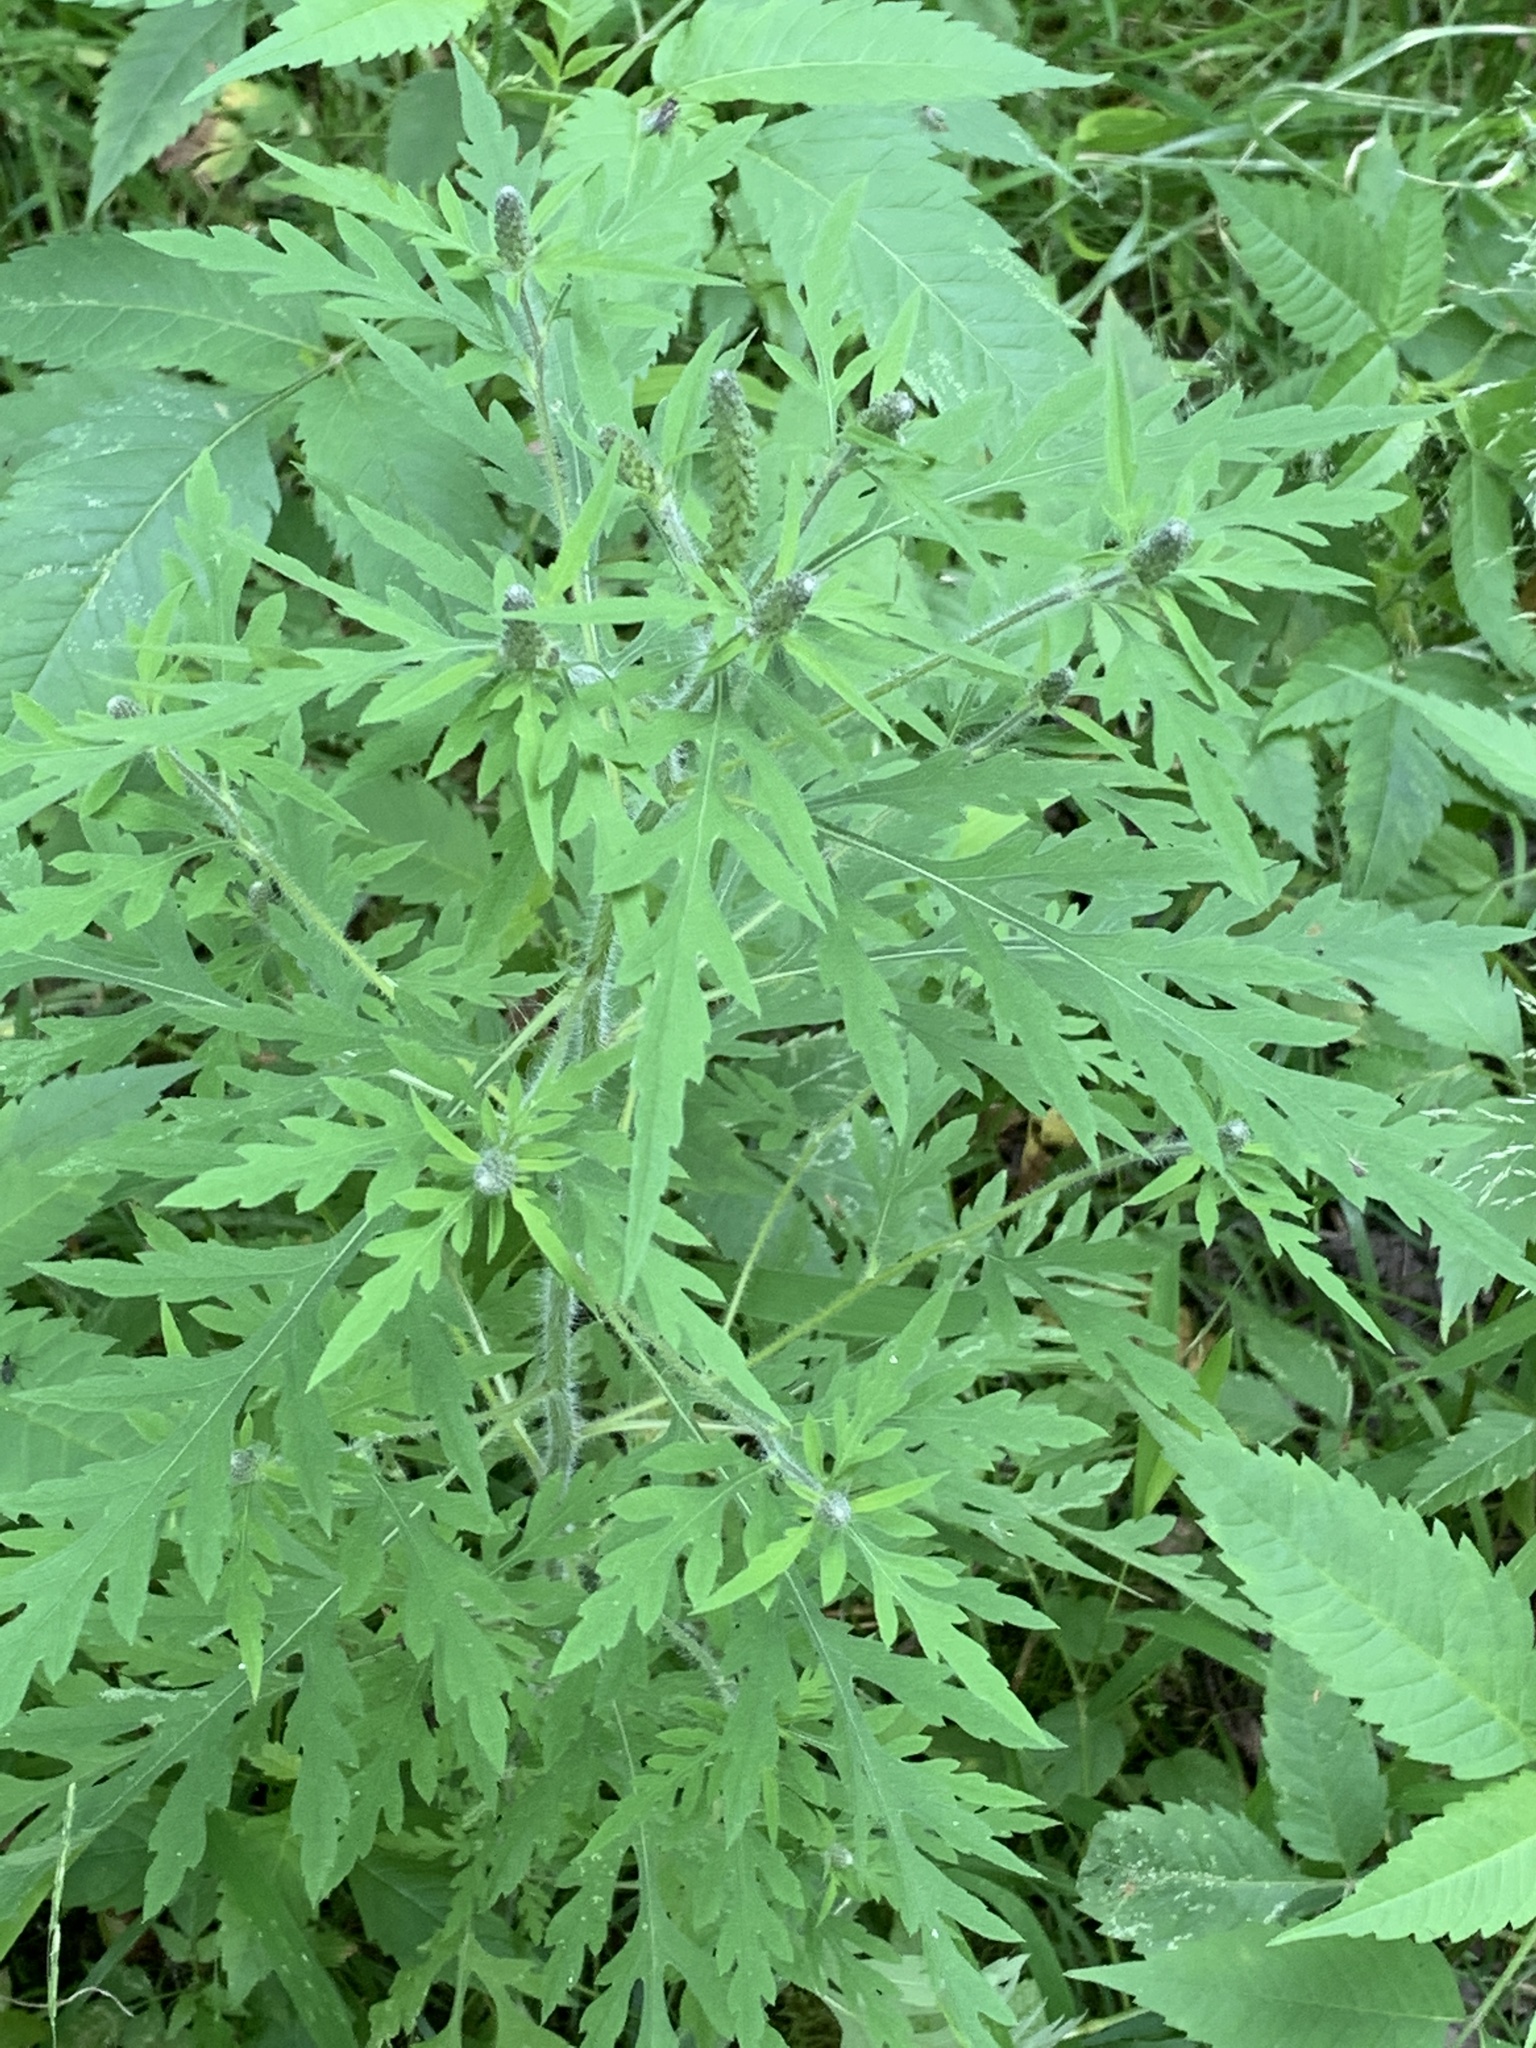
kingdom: Plantae
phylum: Tracheophyta
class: Magnoliopsida
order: Asterales
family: Asteraceae
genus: Ambrosia
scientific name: Ambrosia artemisiifolia
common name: Annual ragweed
